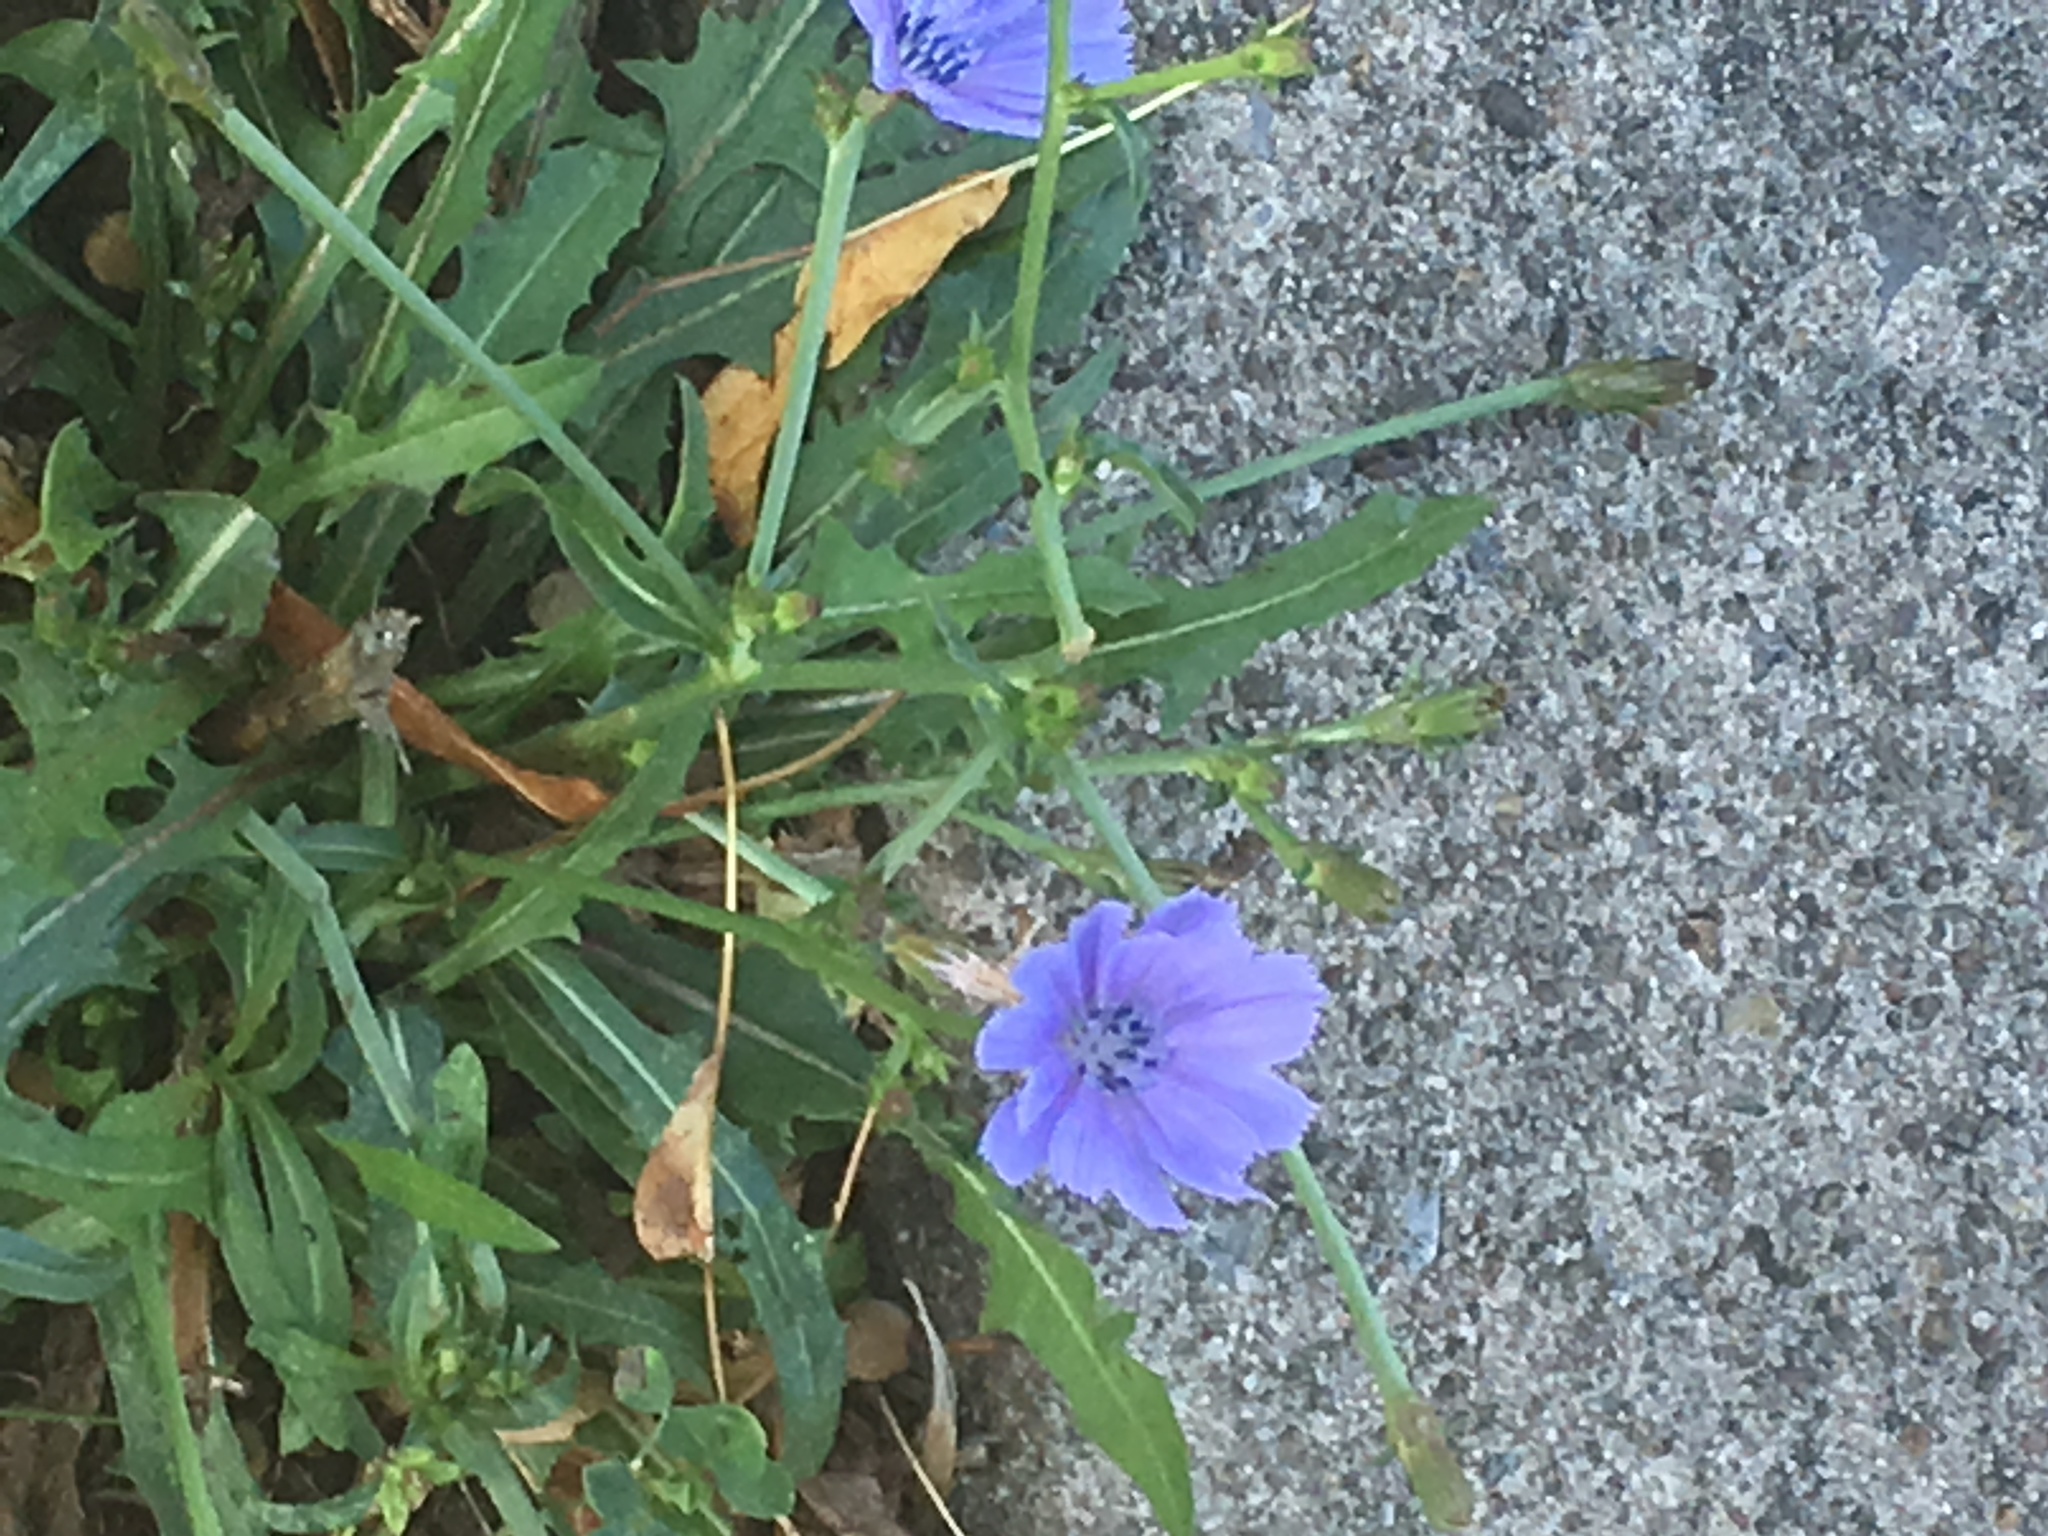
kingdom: Plantae
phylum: Tracheophyta
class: Magnoliopsida
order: Asterales
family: Asteraceae
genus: Cichorium
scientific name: Cichorium intybus
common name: Chicory
